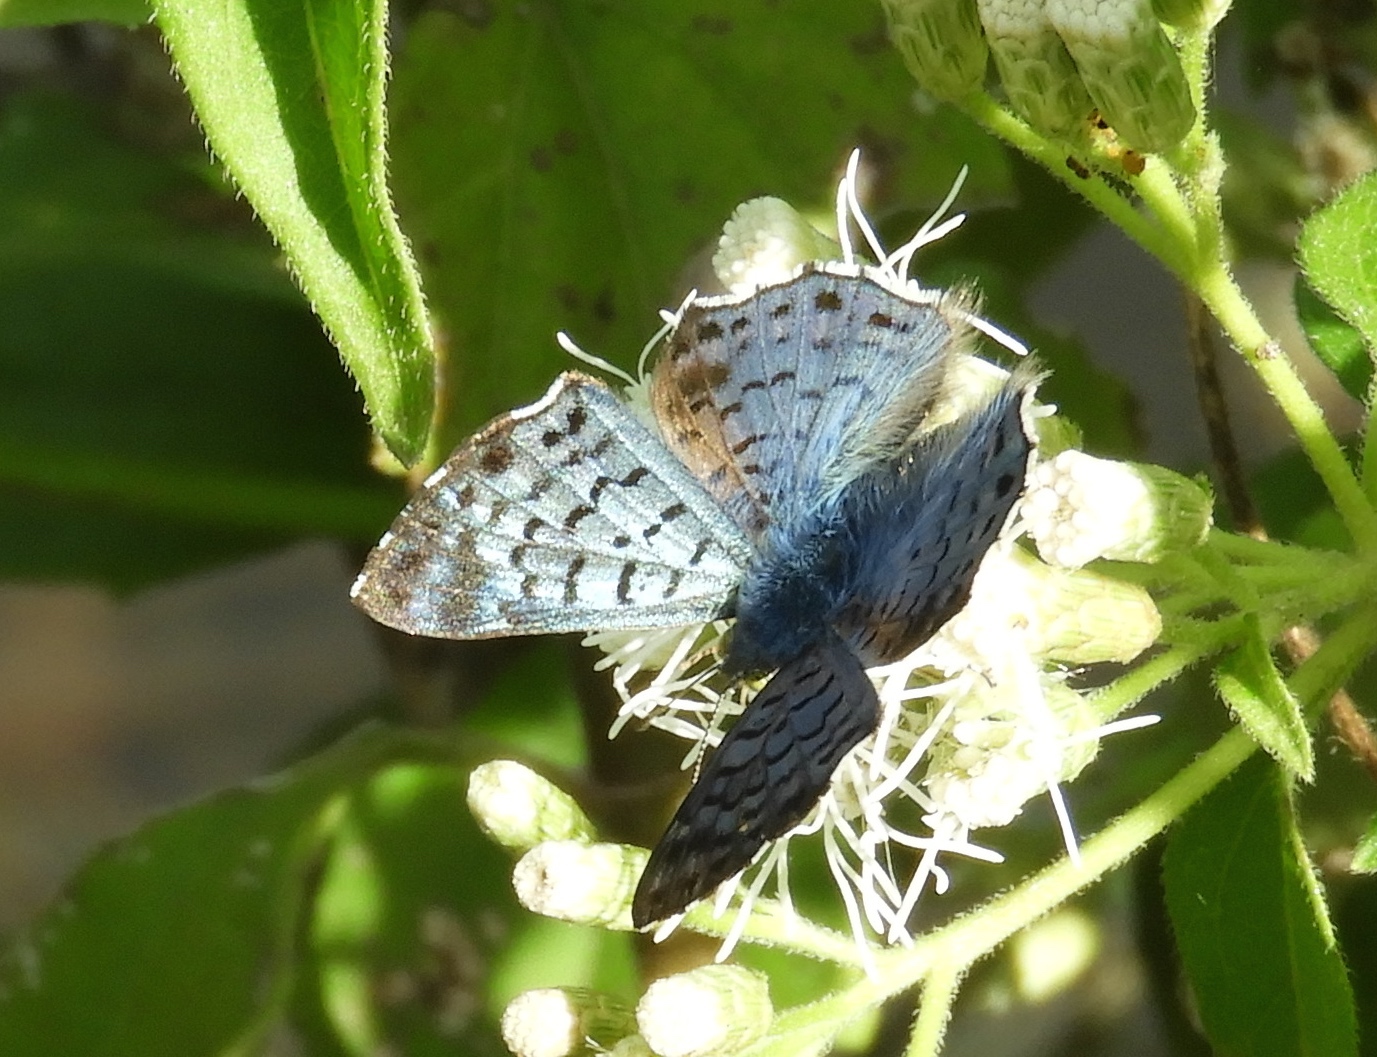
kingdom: Animalia
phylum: Arthropoda
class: Insecta
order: Lepidoptera
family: Riodinidae
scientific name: Riodinidae
